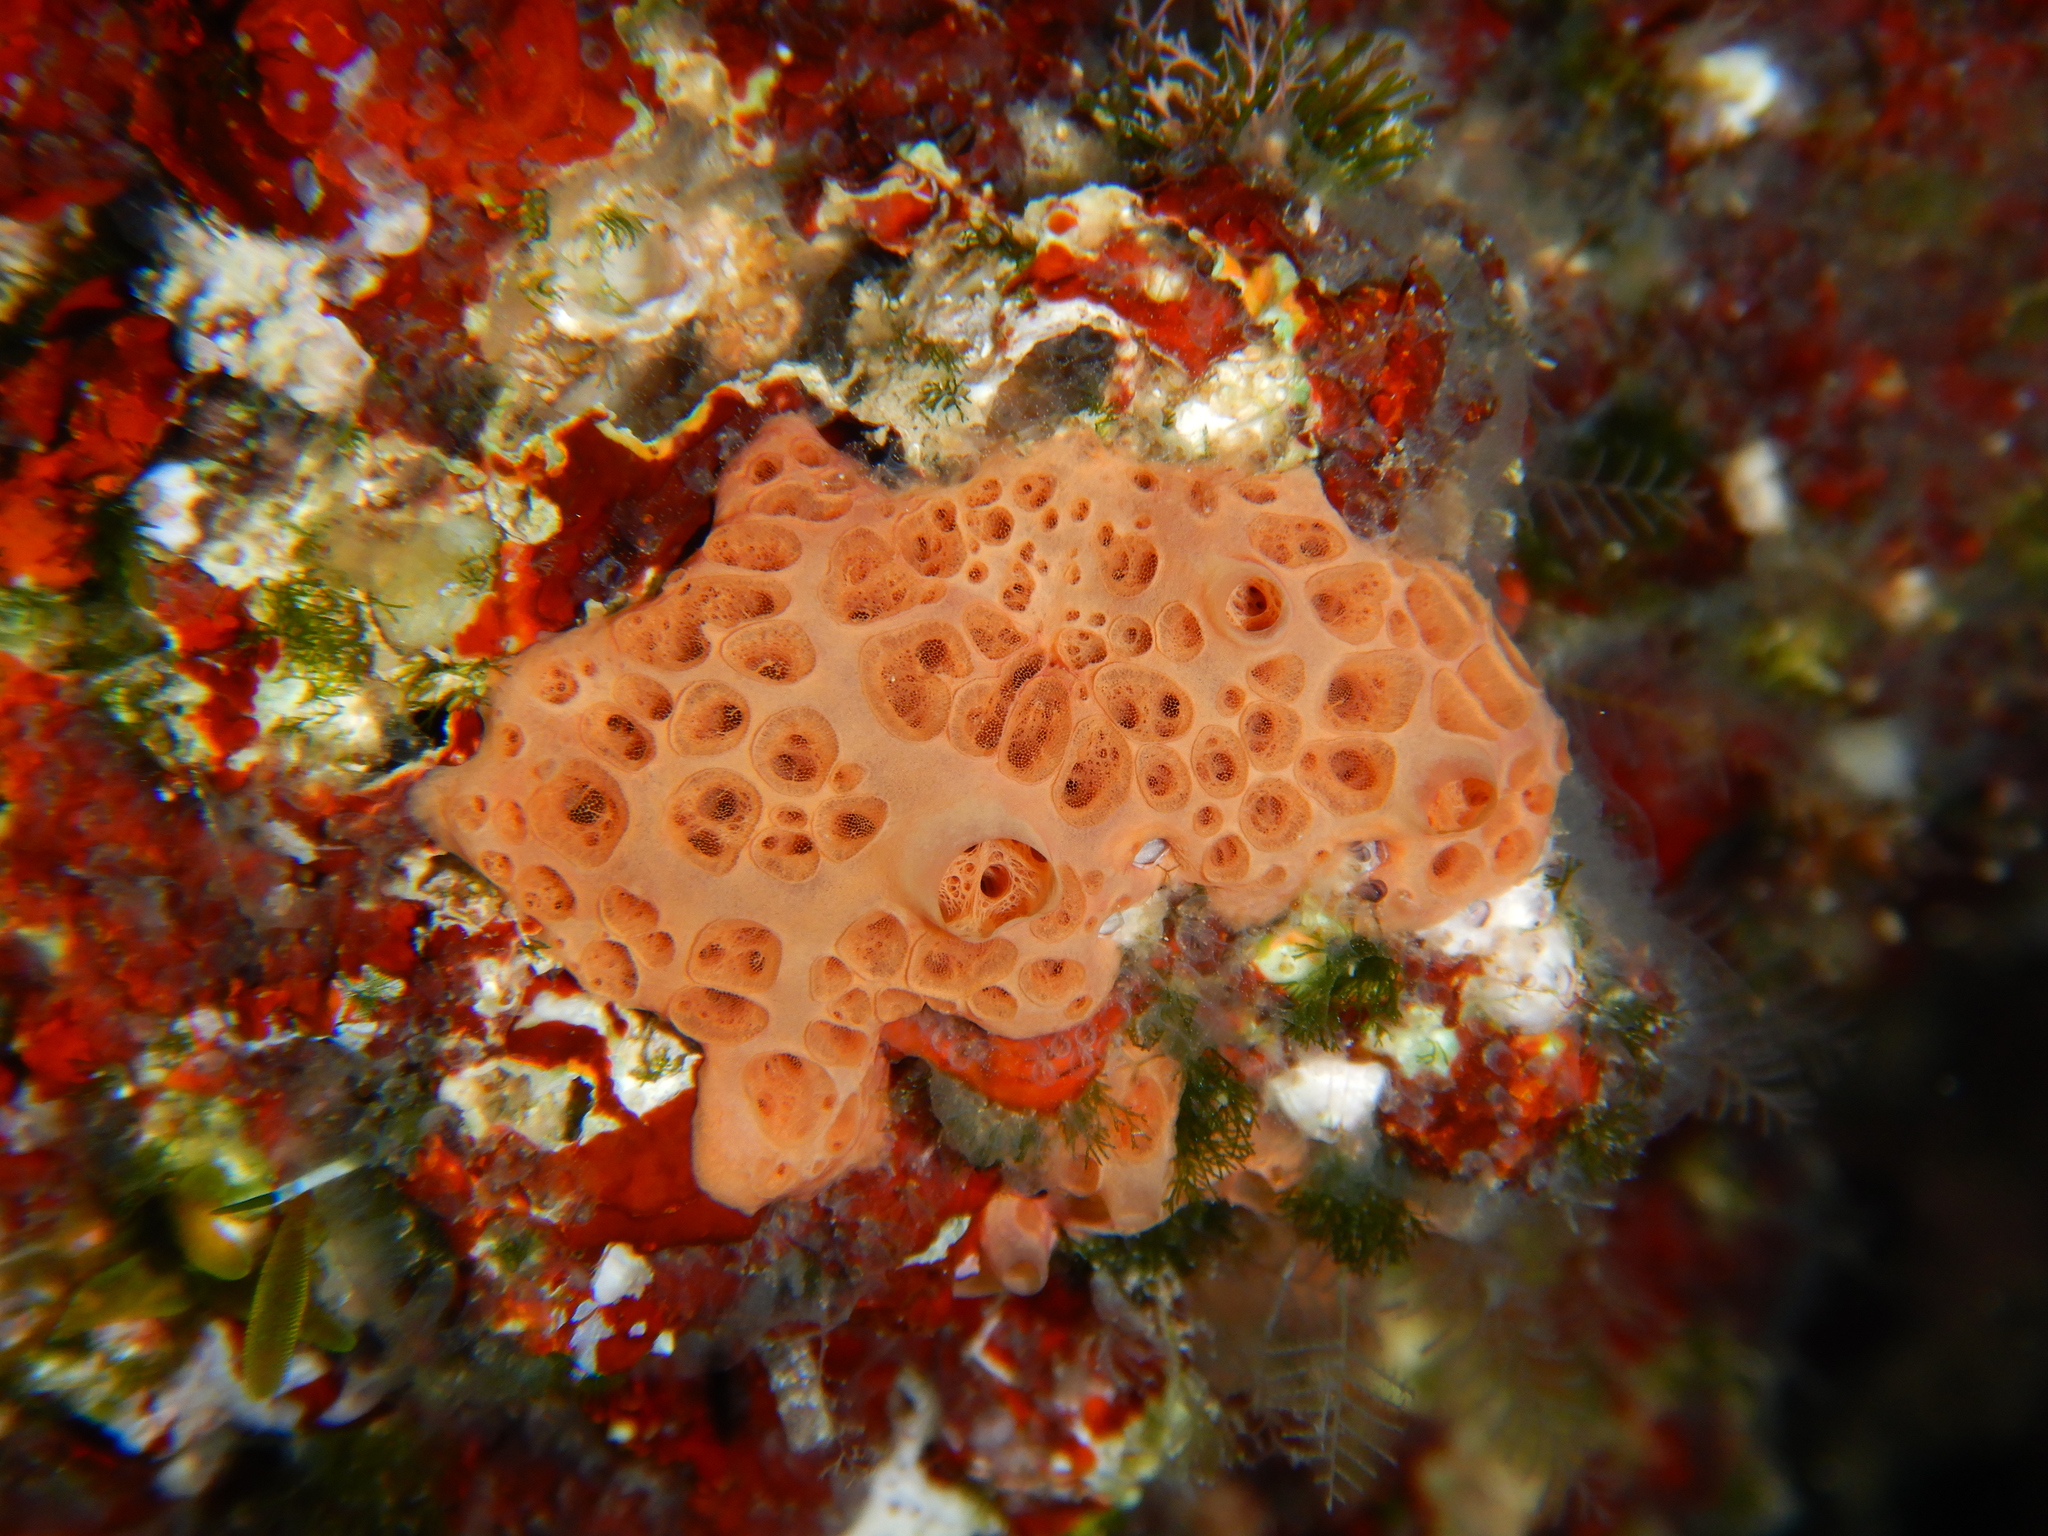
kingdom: Animalia
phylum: Porifera
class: Demospongiae
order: Poecilosclerida
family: Hymedesmiidae
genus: Hemimycale
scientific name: Hemimycale columella
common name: Crater sponge
